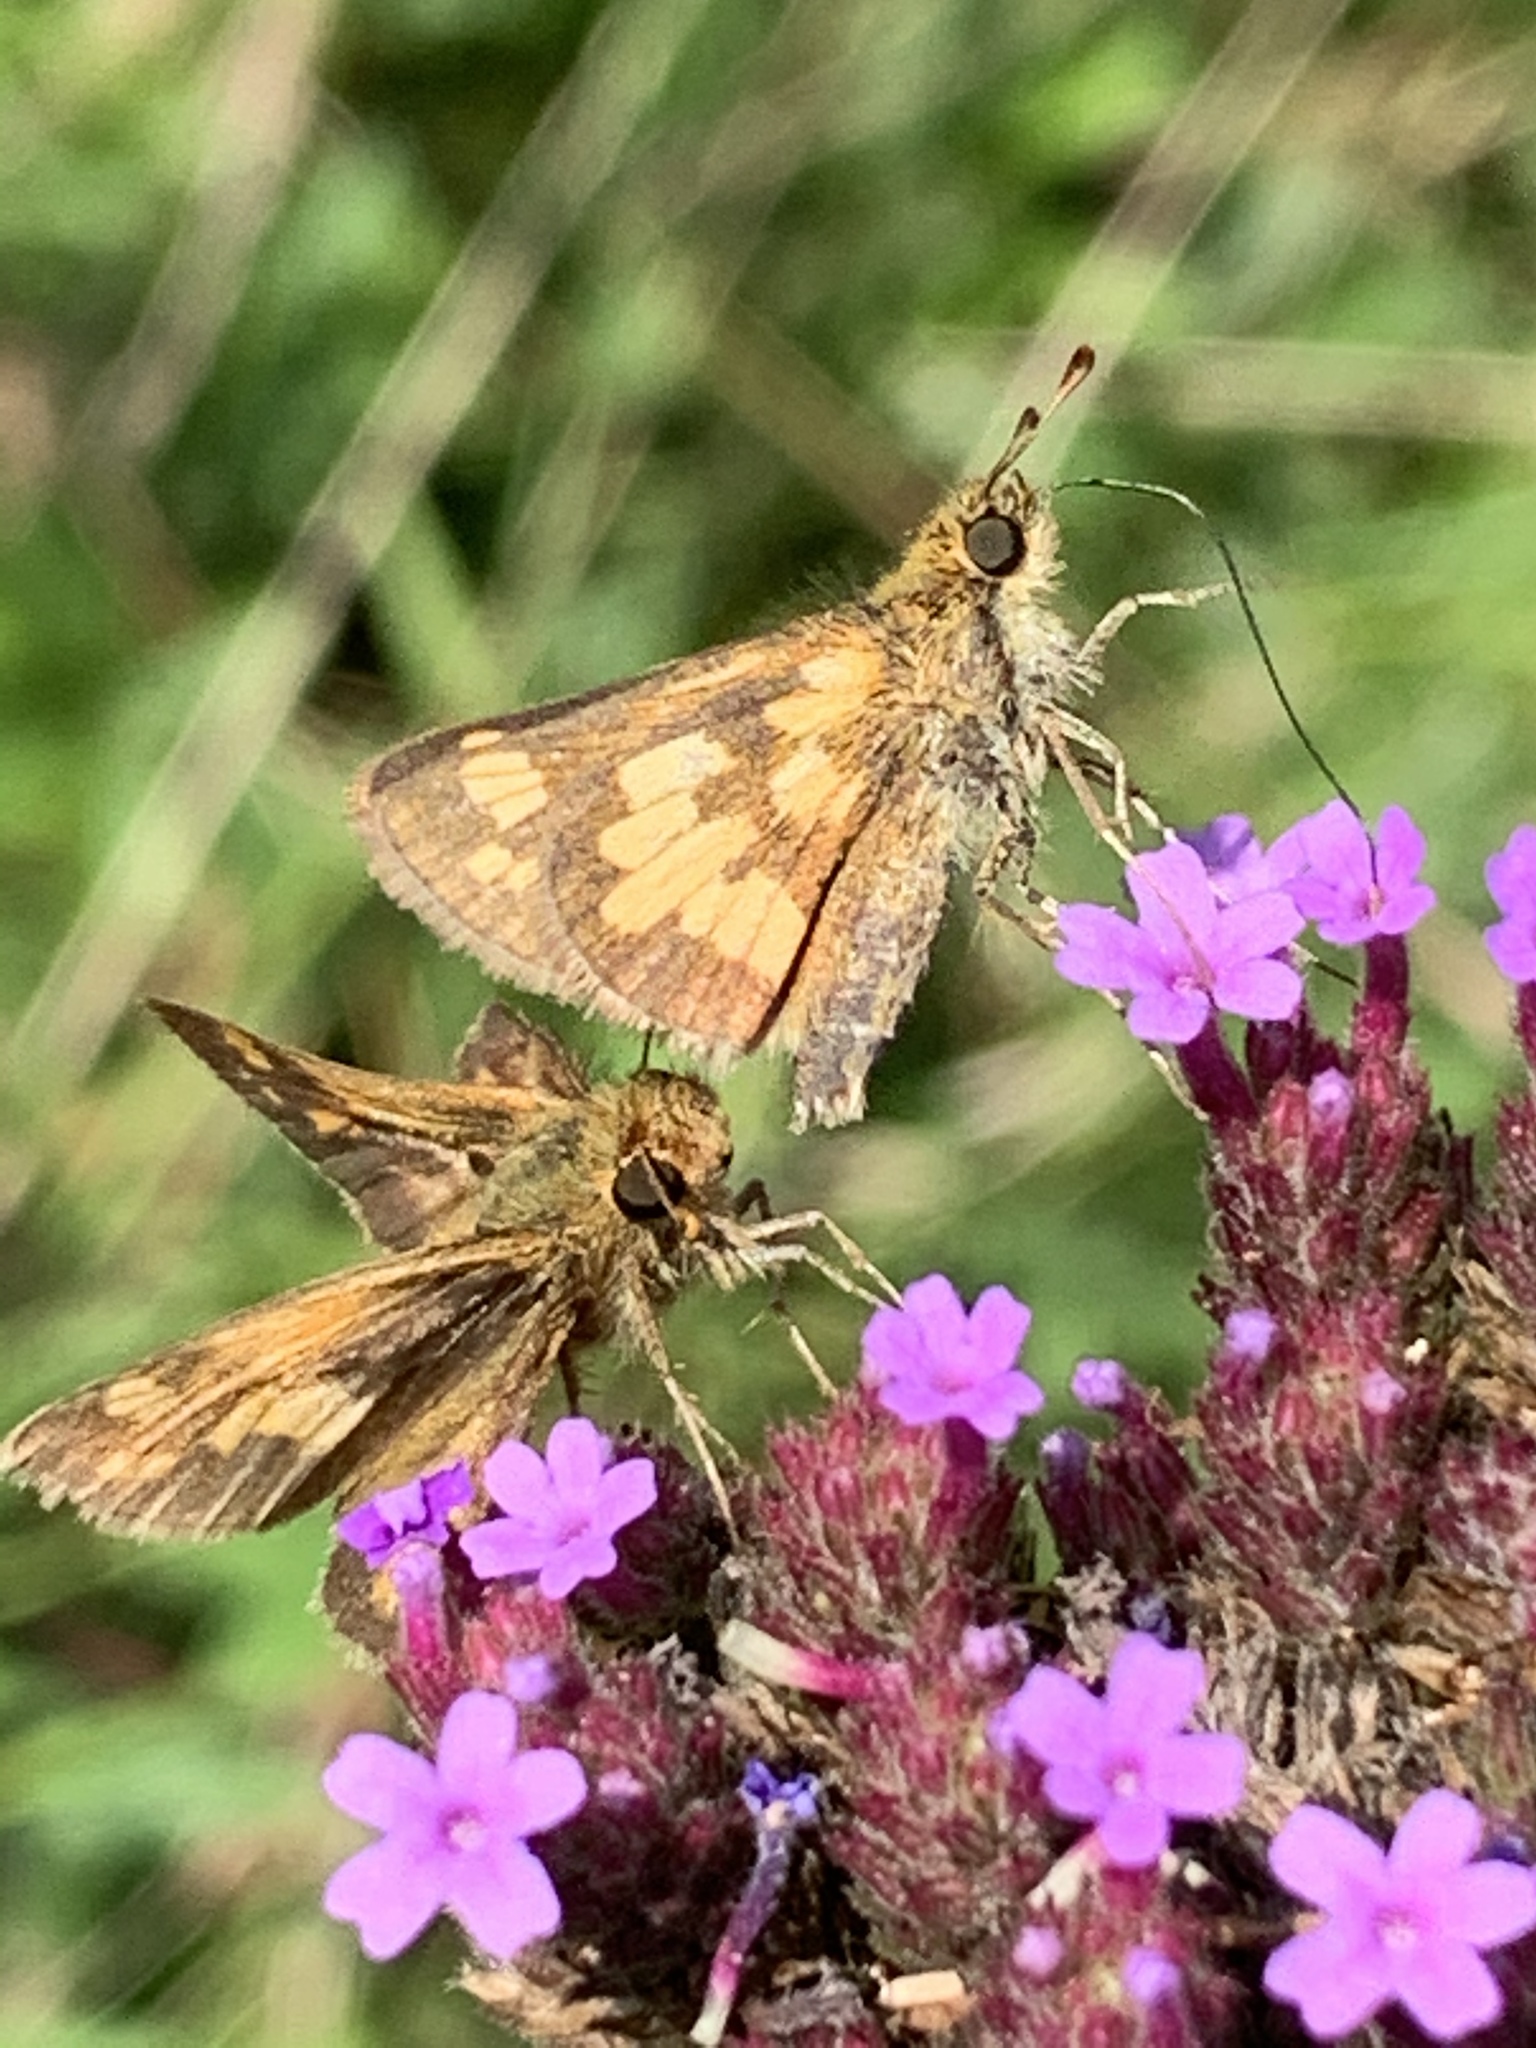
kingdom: Animalia
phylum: Arthropoda
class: Insecta
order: Lepidoptera
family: Hesperiidae
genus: Polites
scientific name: Polites coras
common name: Peck's skipper
